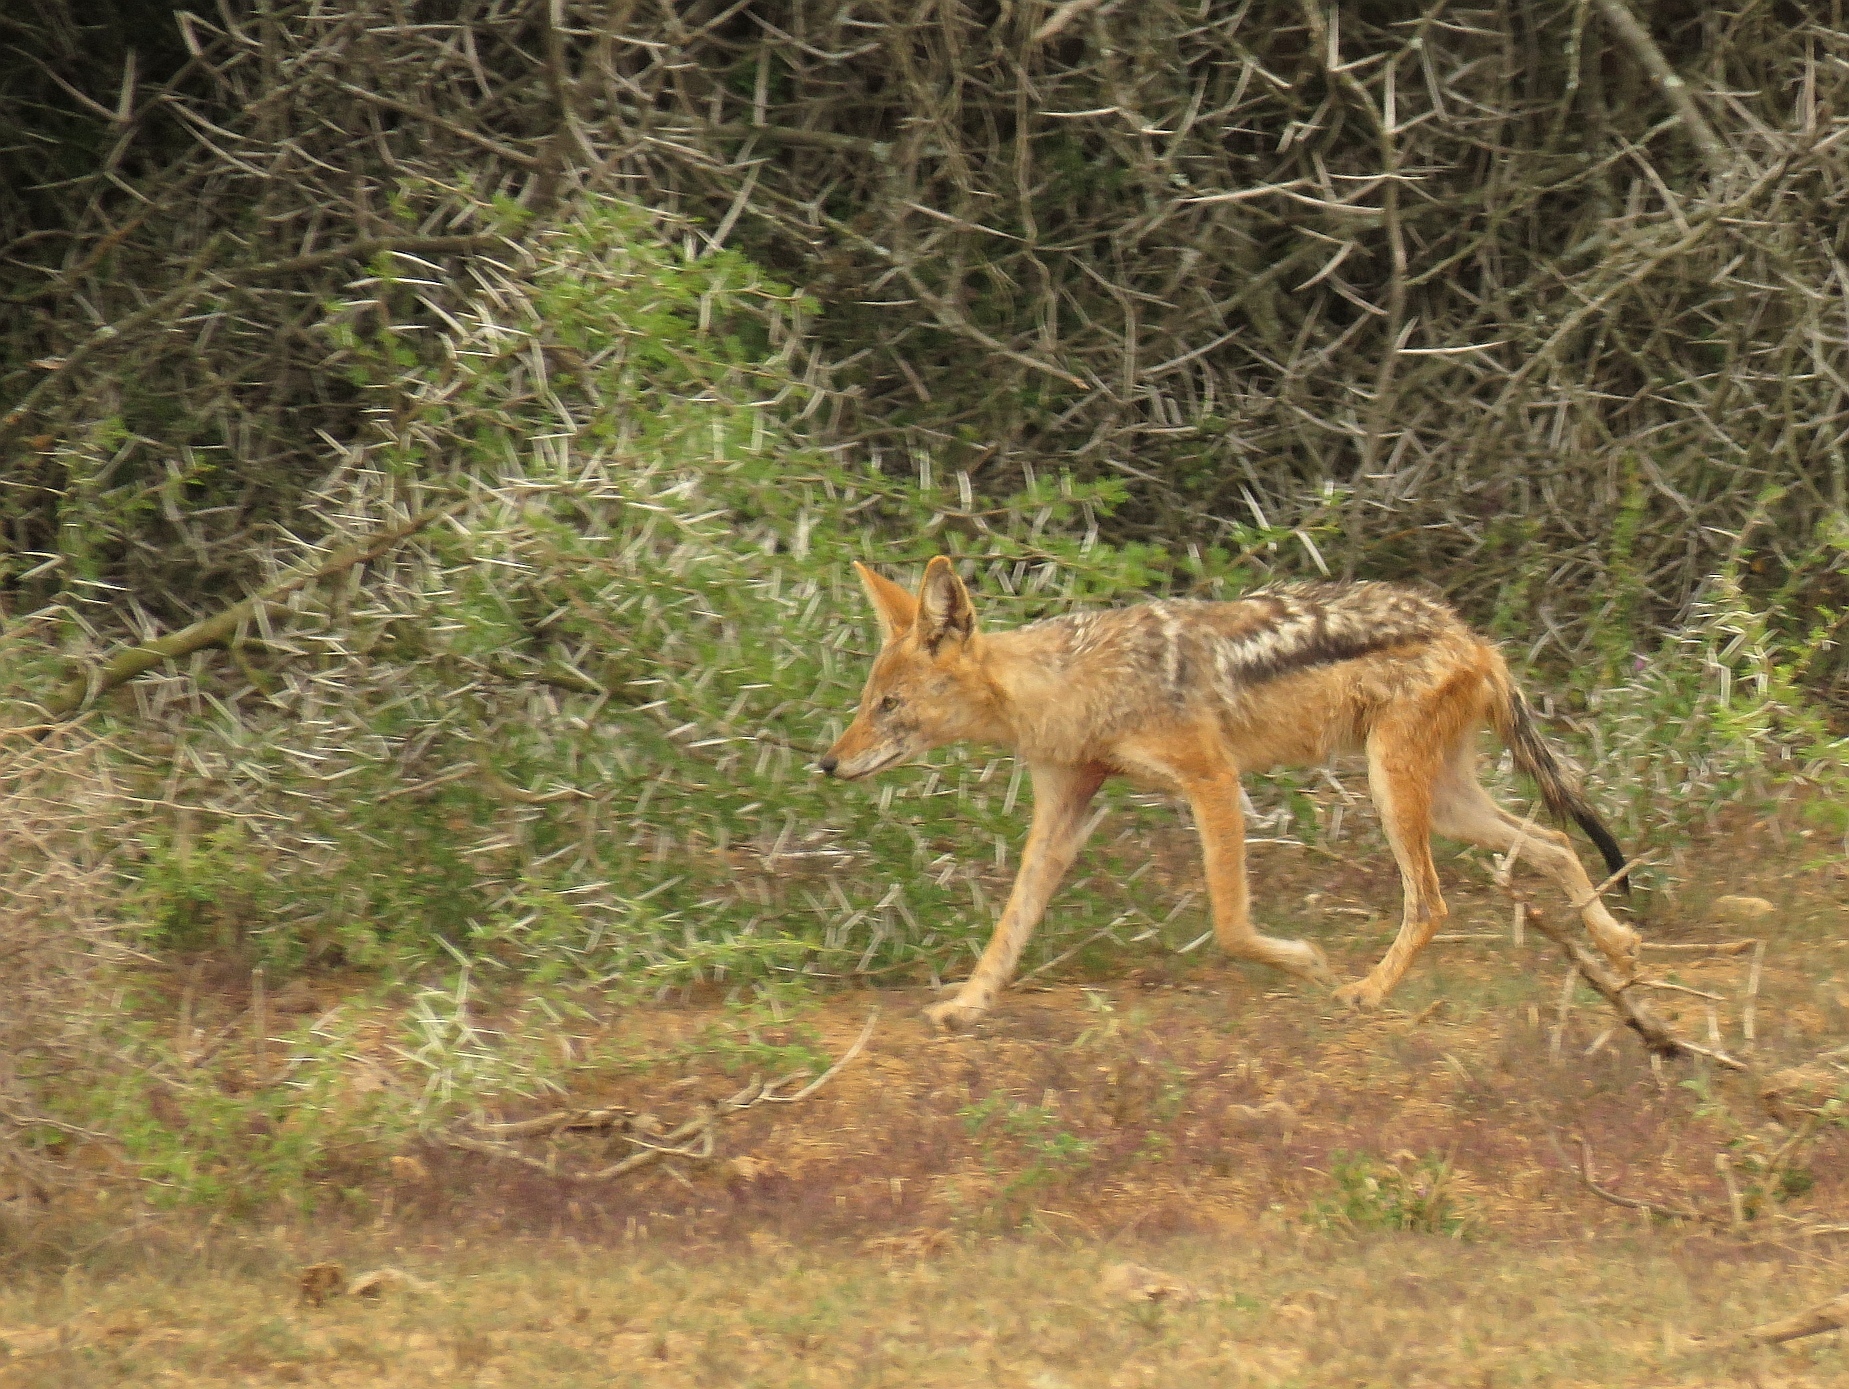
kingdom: Animalia
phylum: Chordata
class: Mammalia
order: Carnivora
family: Canidae
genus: Lupulella
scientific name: Lupulella
